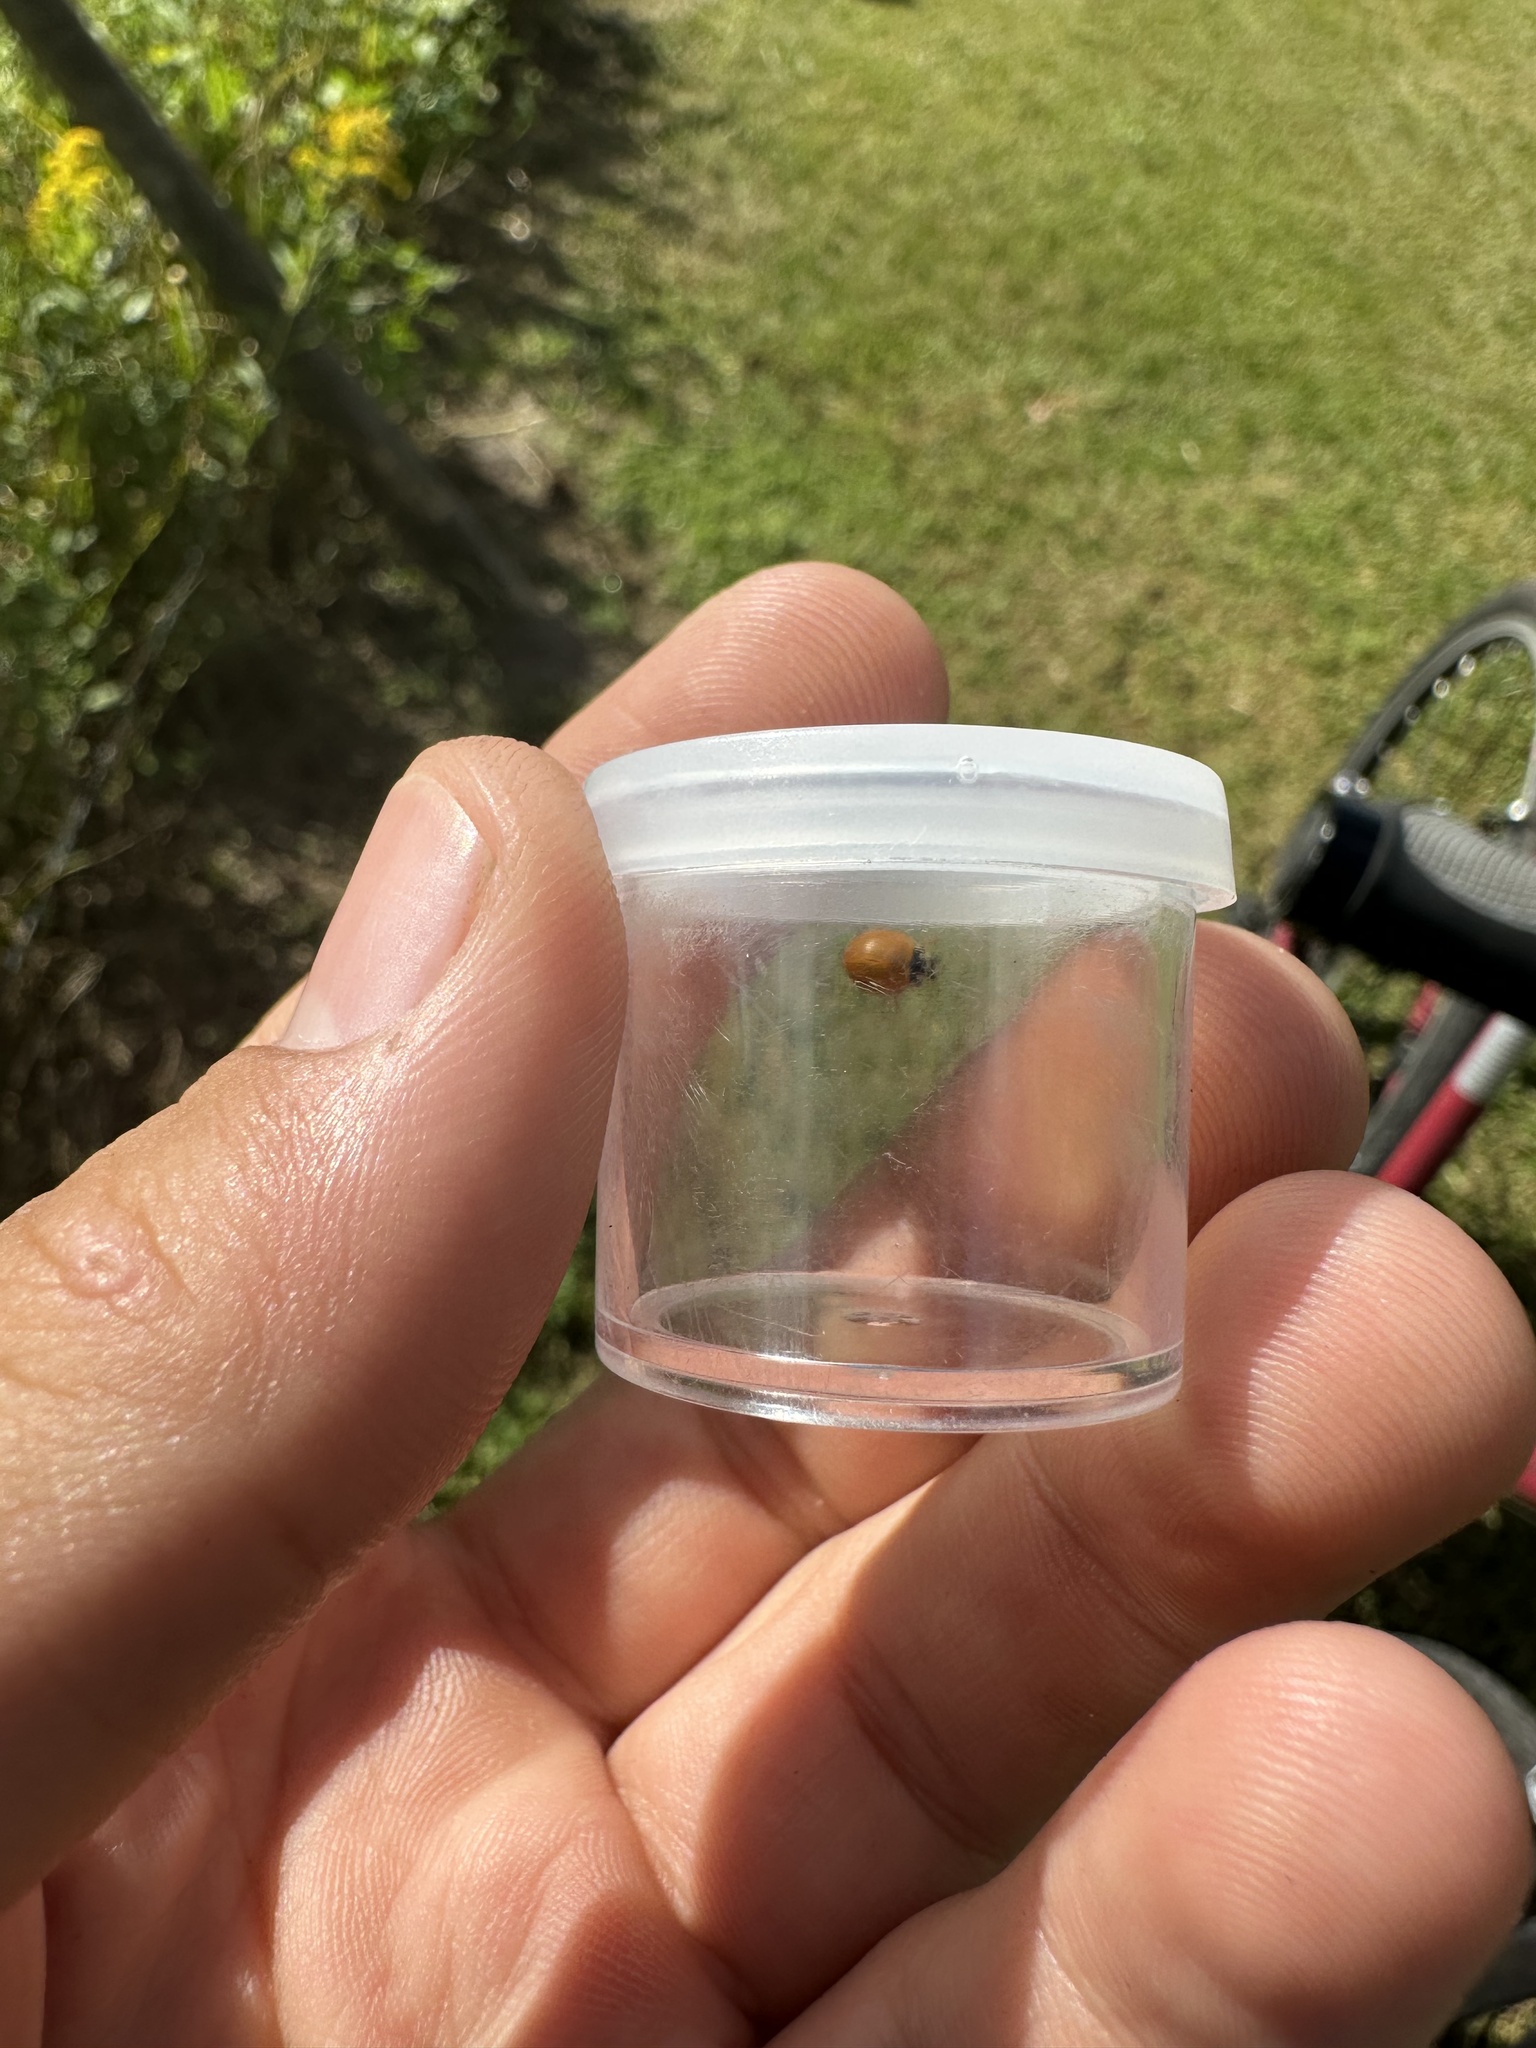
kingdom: Animalia
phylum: Arthropoda
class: Insecta
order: Coleoptera
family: Coccinellidae
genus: Cycloneda
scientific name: Cycloneda munda
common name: Polished lady beetle
